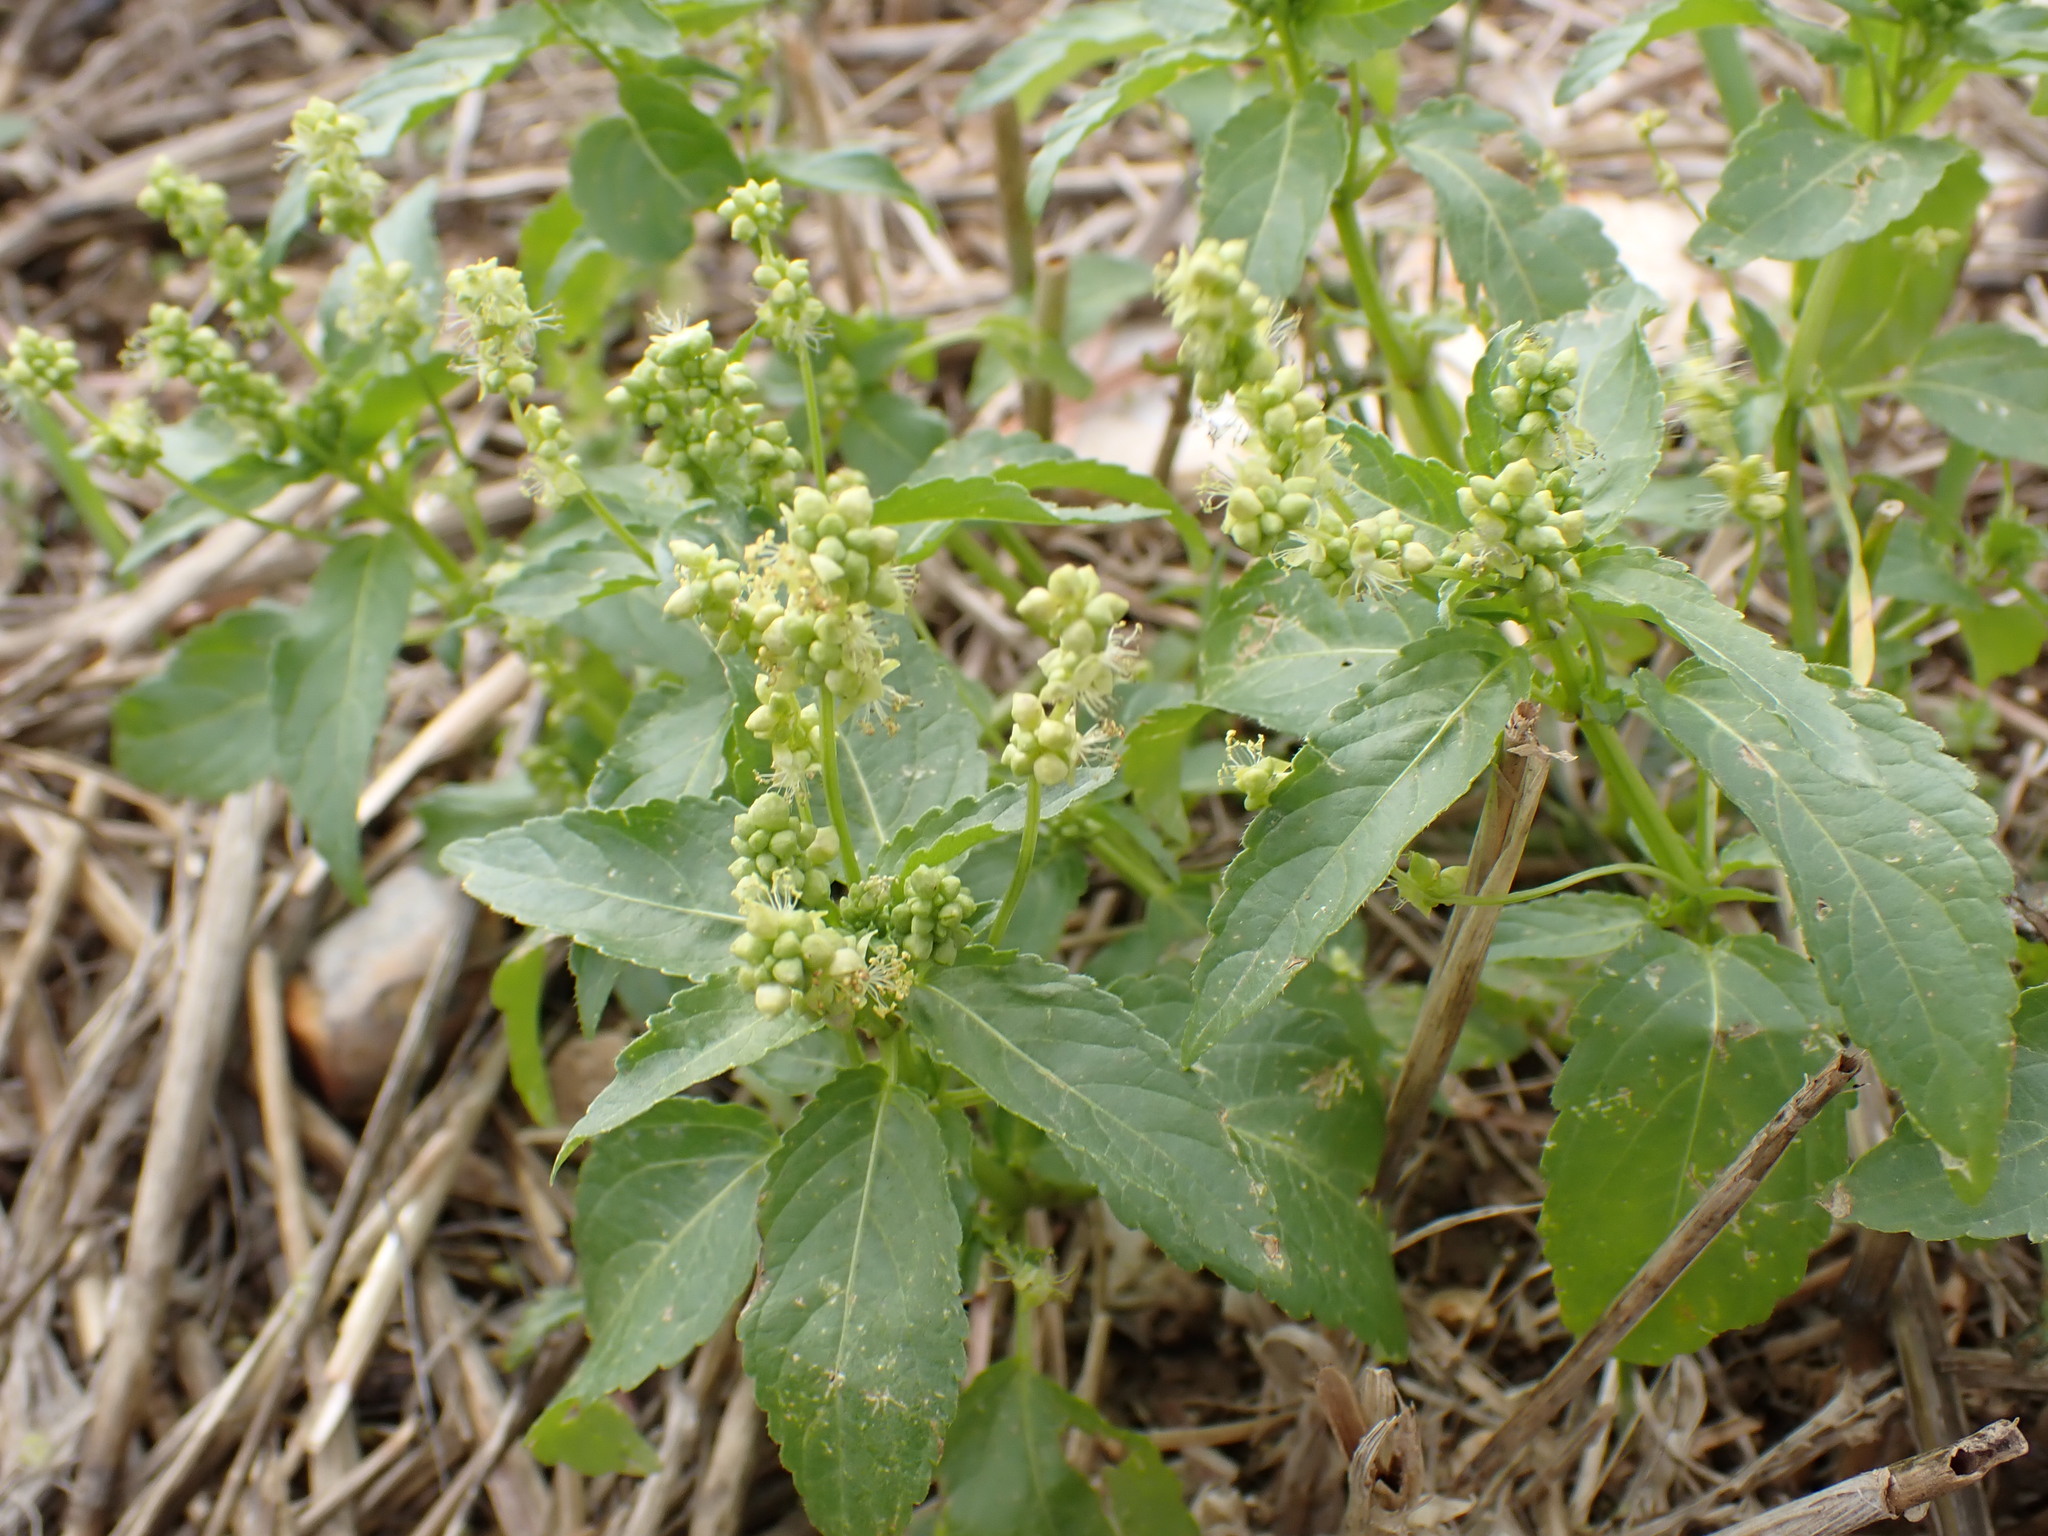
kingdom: Plantae
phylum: Tracheophyta
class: Magnoliopsida
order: Malpighiales
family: Euphorbiaceae
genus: Mercurialis
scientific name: Mercurialis annua
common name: Annual mercury
